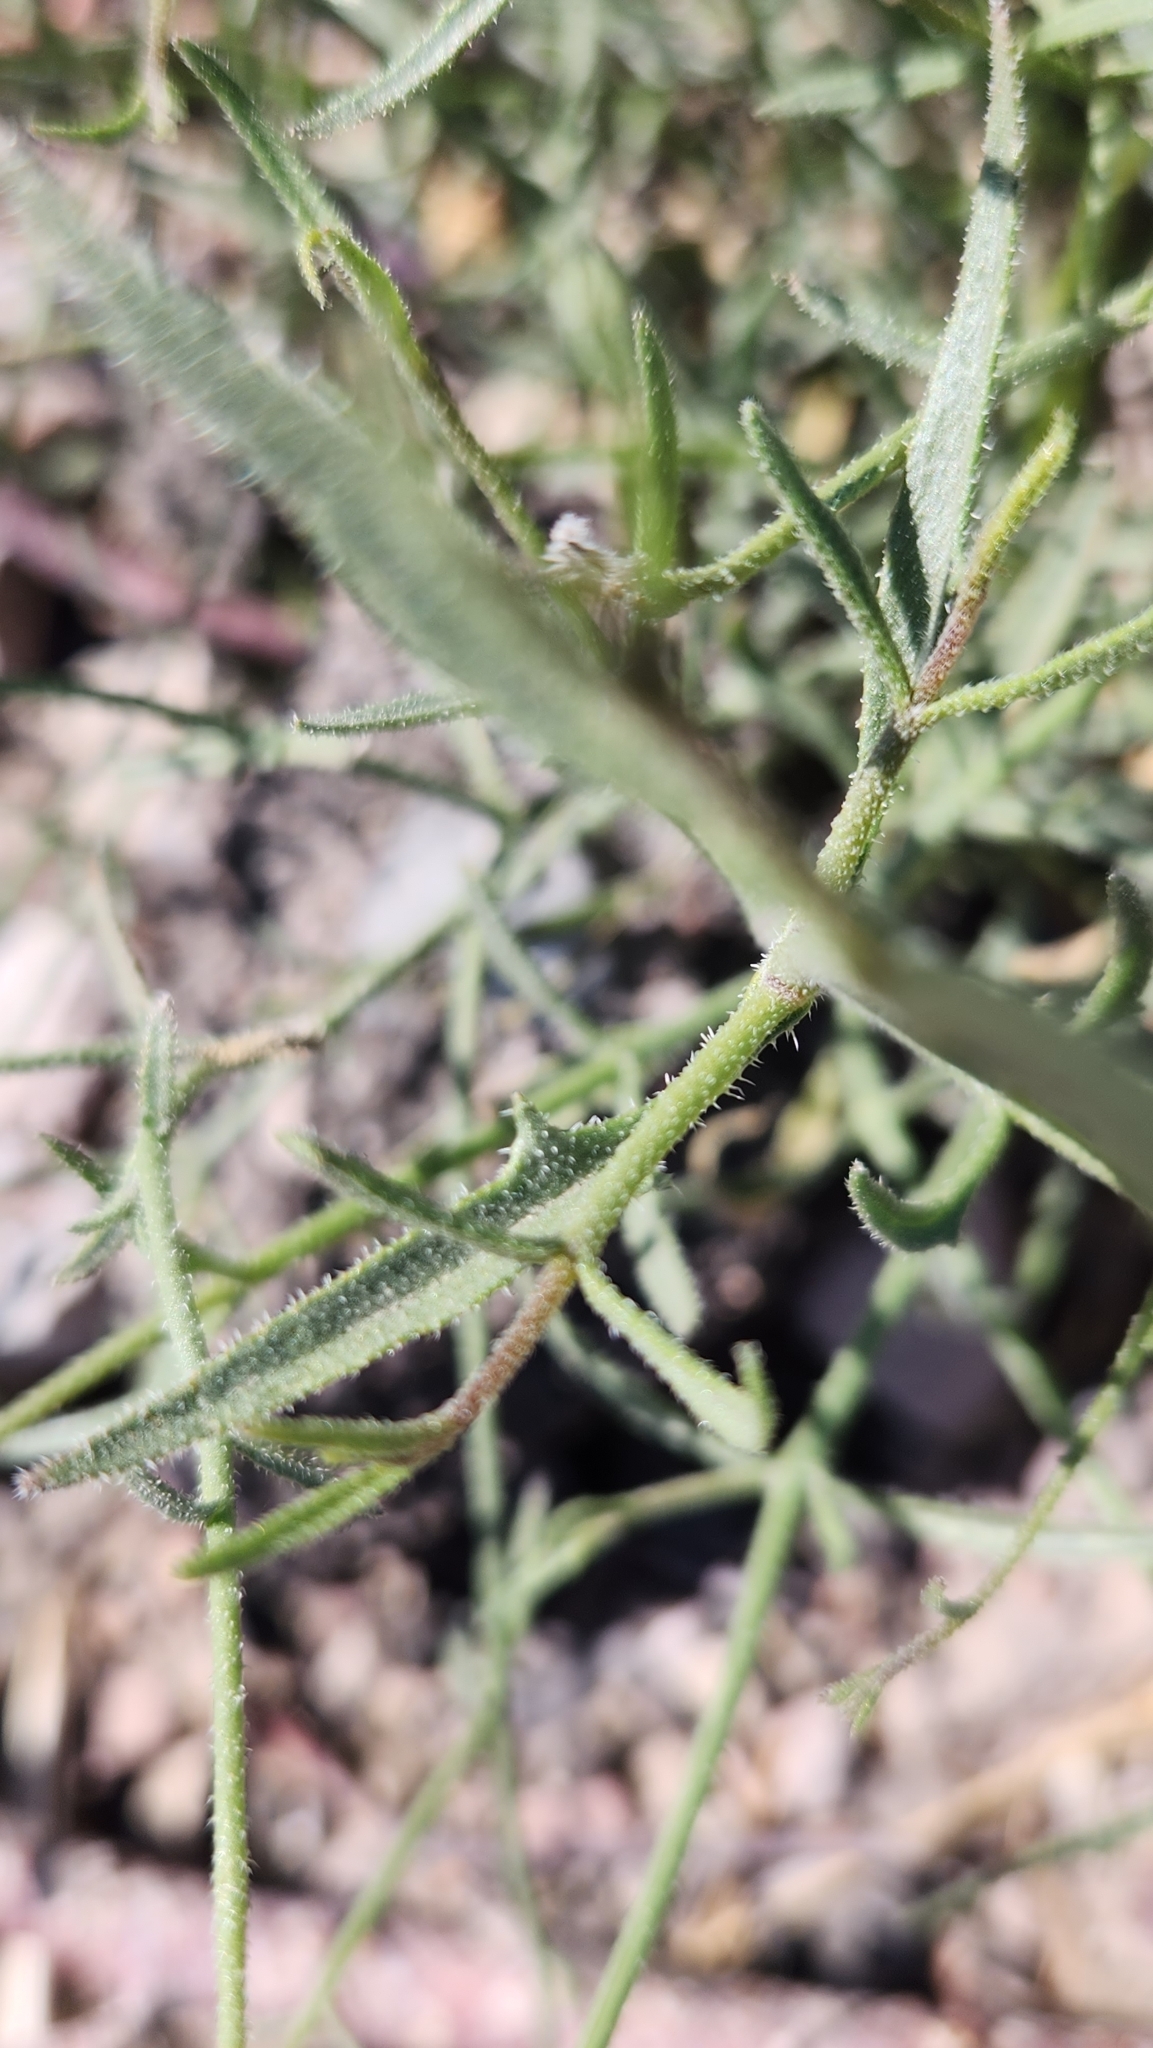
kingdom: Plantae
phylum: Tracheophyta
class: Magnoliopsida
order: Asterales
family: Asteraceae
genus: Bebbia
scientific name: Bebbia juncea
